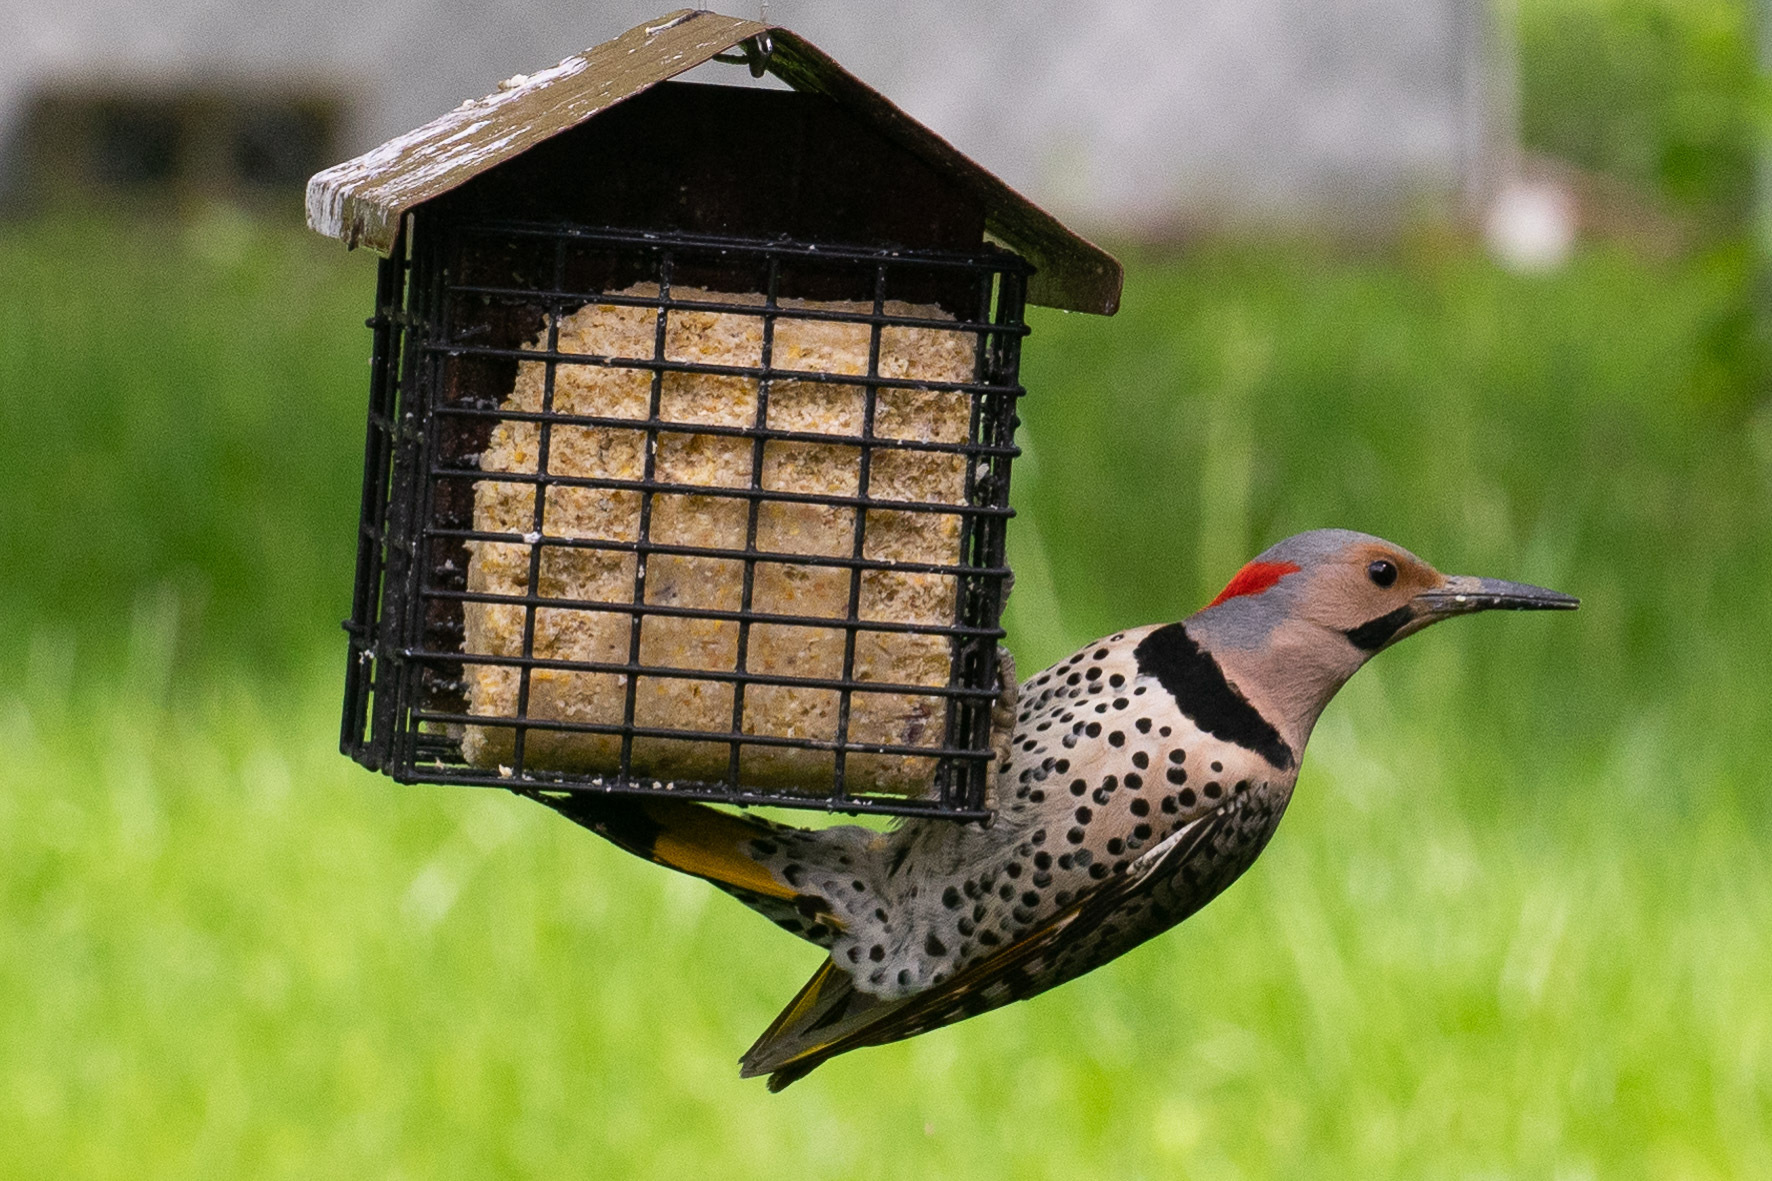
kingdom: Animalia
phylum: Chordata
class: Aves
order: Piciformes
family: Picidae
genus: Colaptes
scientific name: Colaptes auratus
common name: Northern flicker
